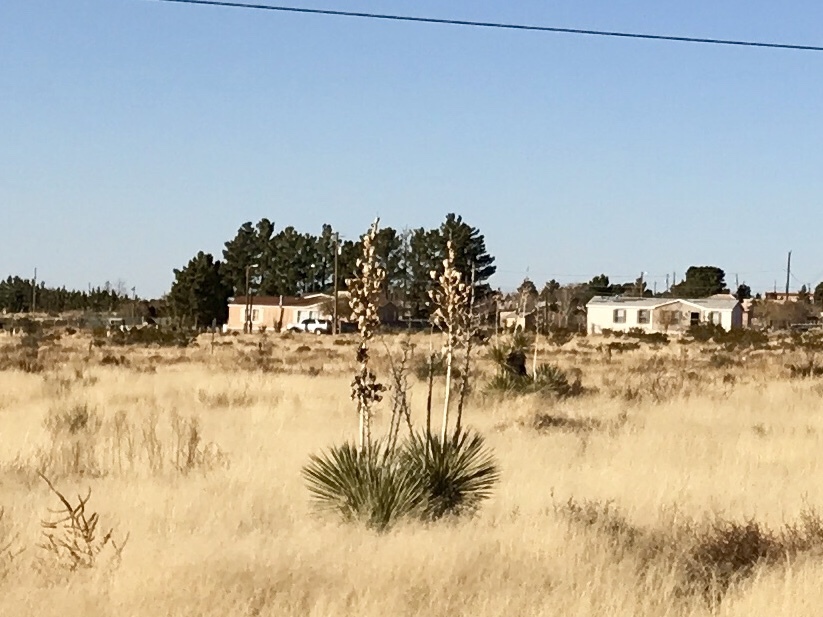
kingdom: Plantae
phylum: Tracheophyta
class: Liliopsida
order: Asparagales
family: Asparagaceae
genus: Yucca
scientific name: Yucca elata
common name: Palmella
